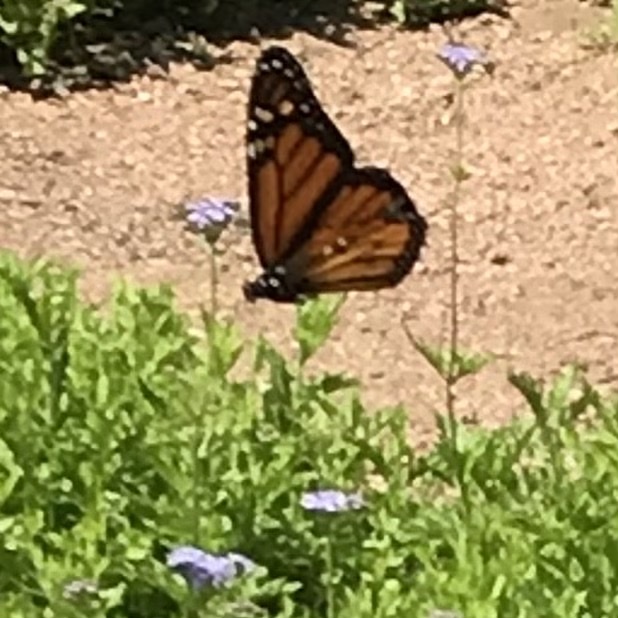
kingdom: Animalia
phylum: Arthropoda
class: Insecta
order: Lepidoptera
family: Nymphalidae
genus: Danaus
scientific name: Danaus plexippus
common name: Monarch
